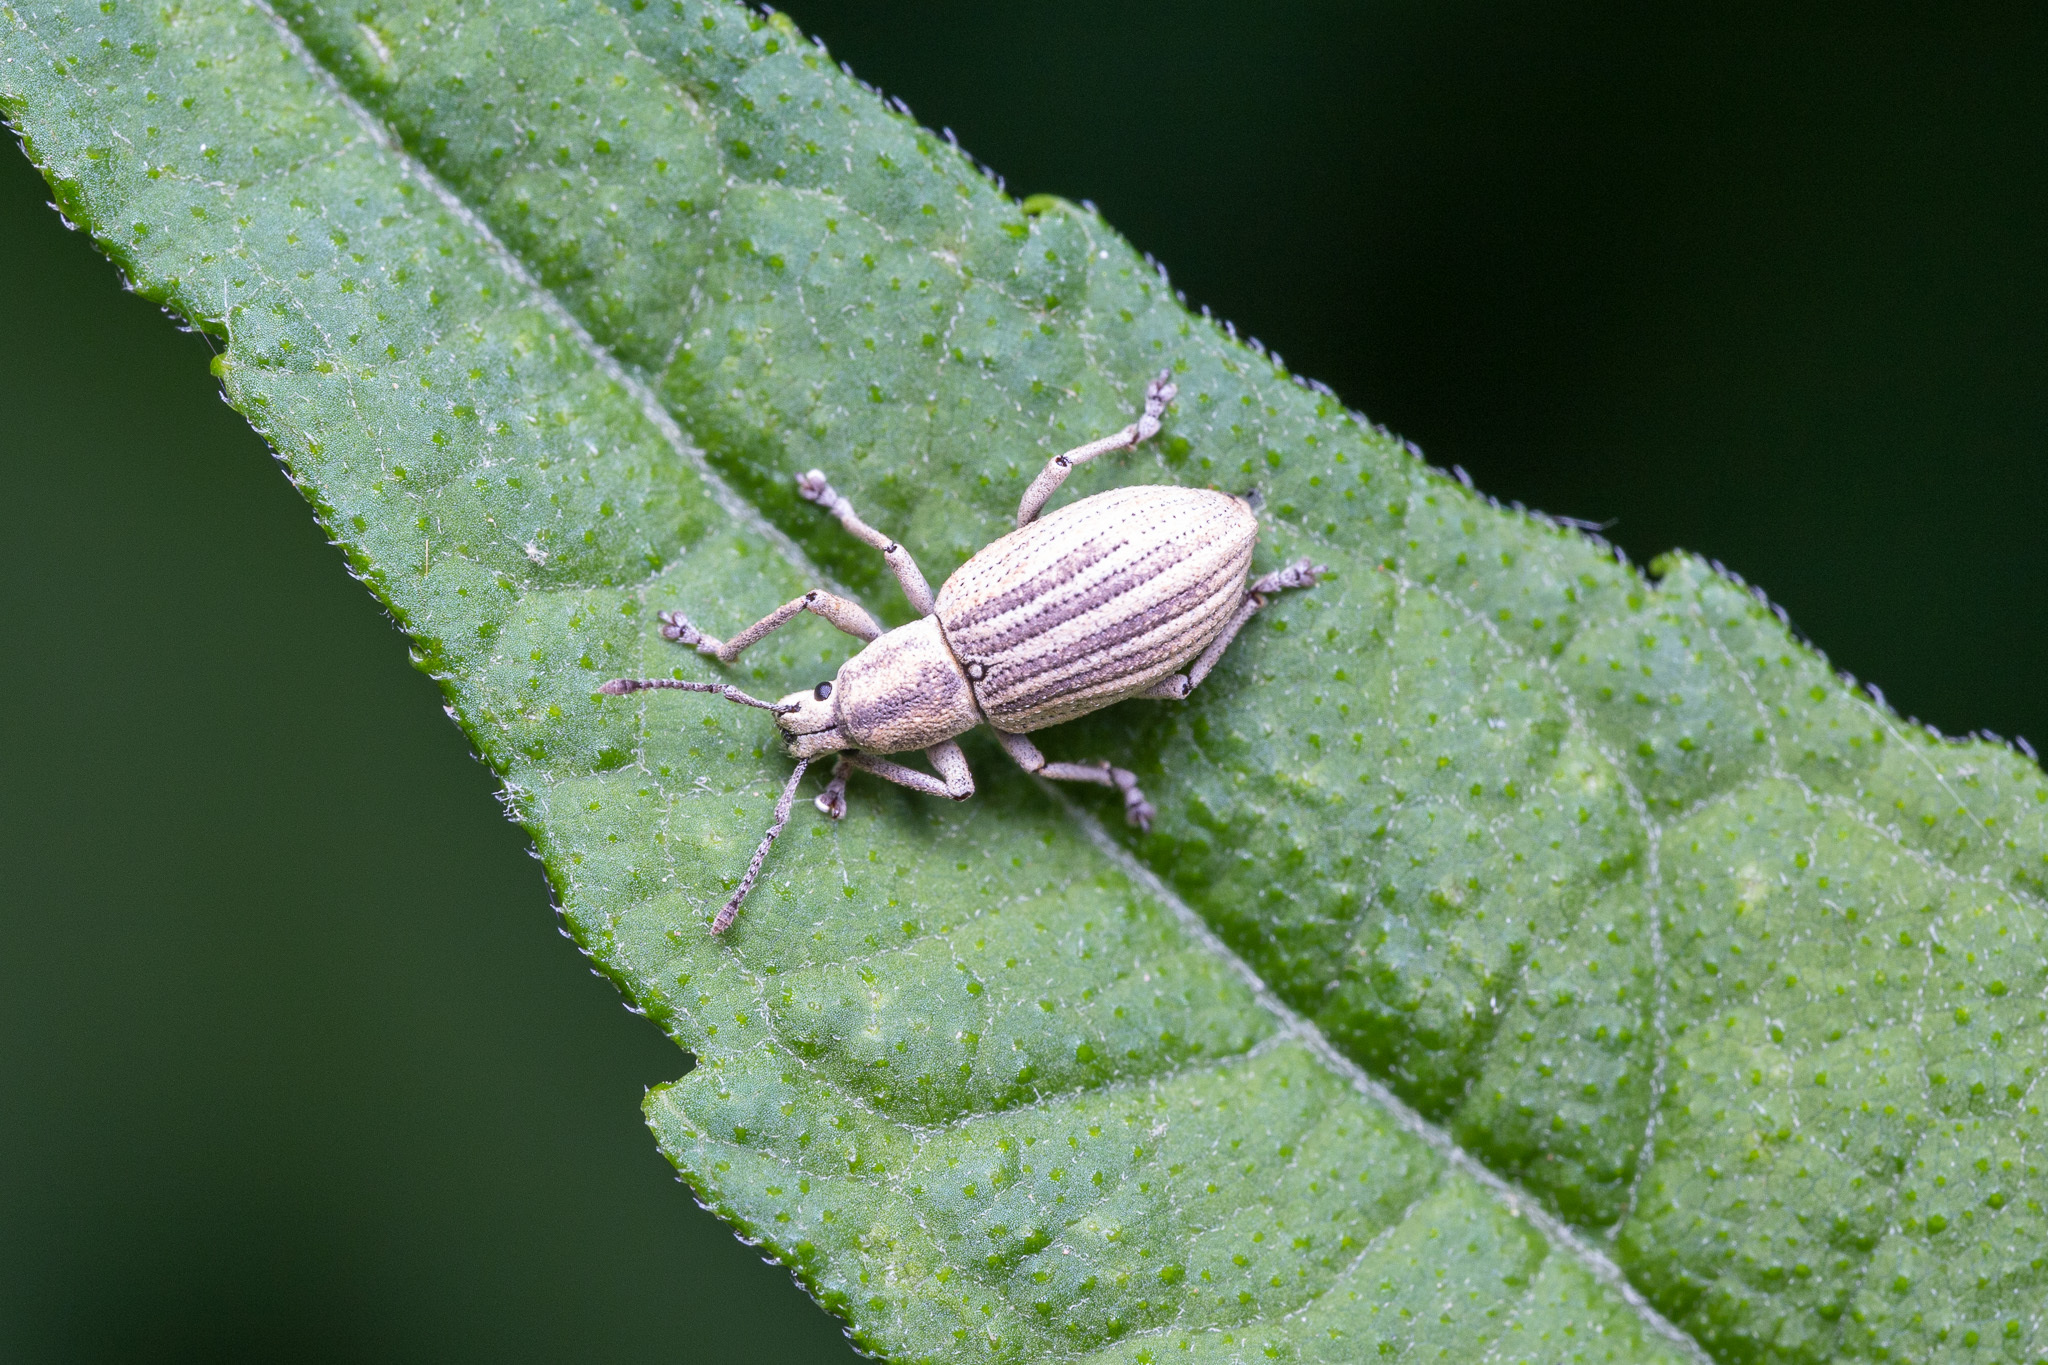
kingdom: Animalia
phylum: Arthropoda
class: Insecta
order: Coleoptera
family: Curculionidae
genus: Aphrastus
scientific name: Aphrastus taeniatus
